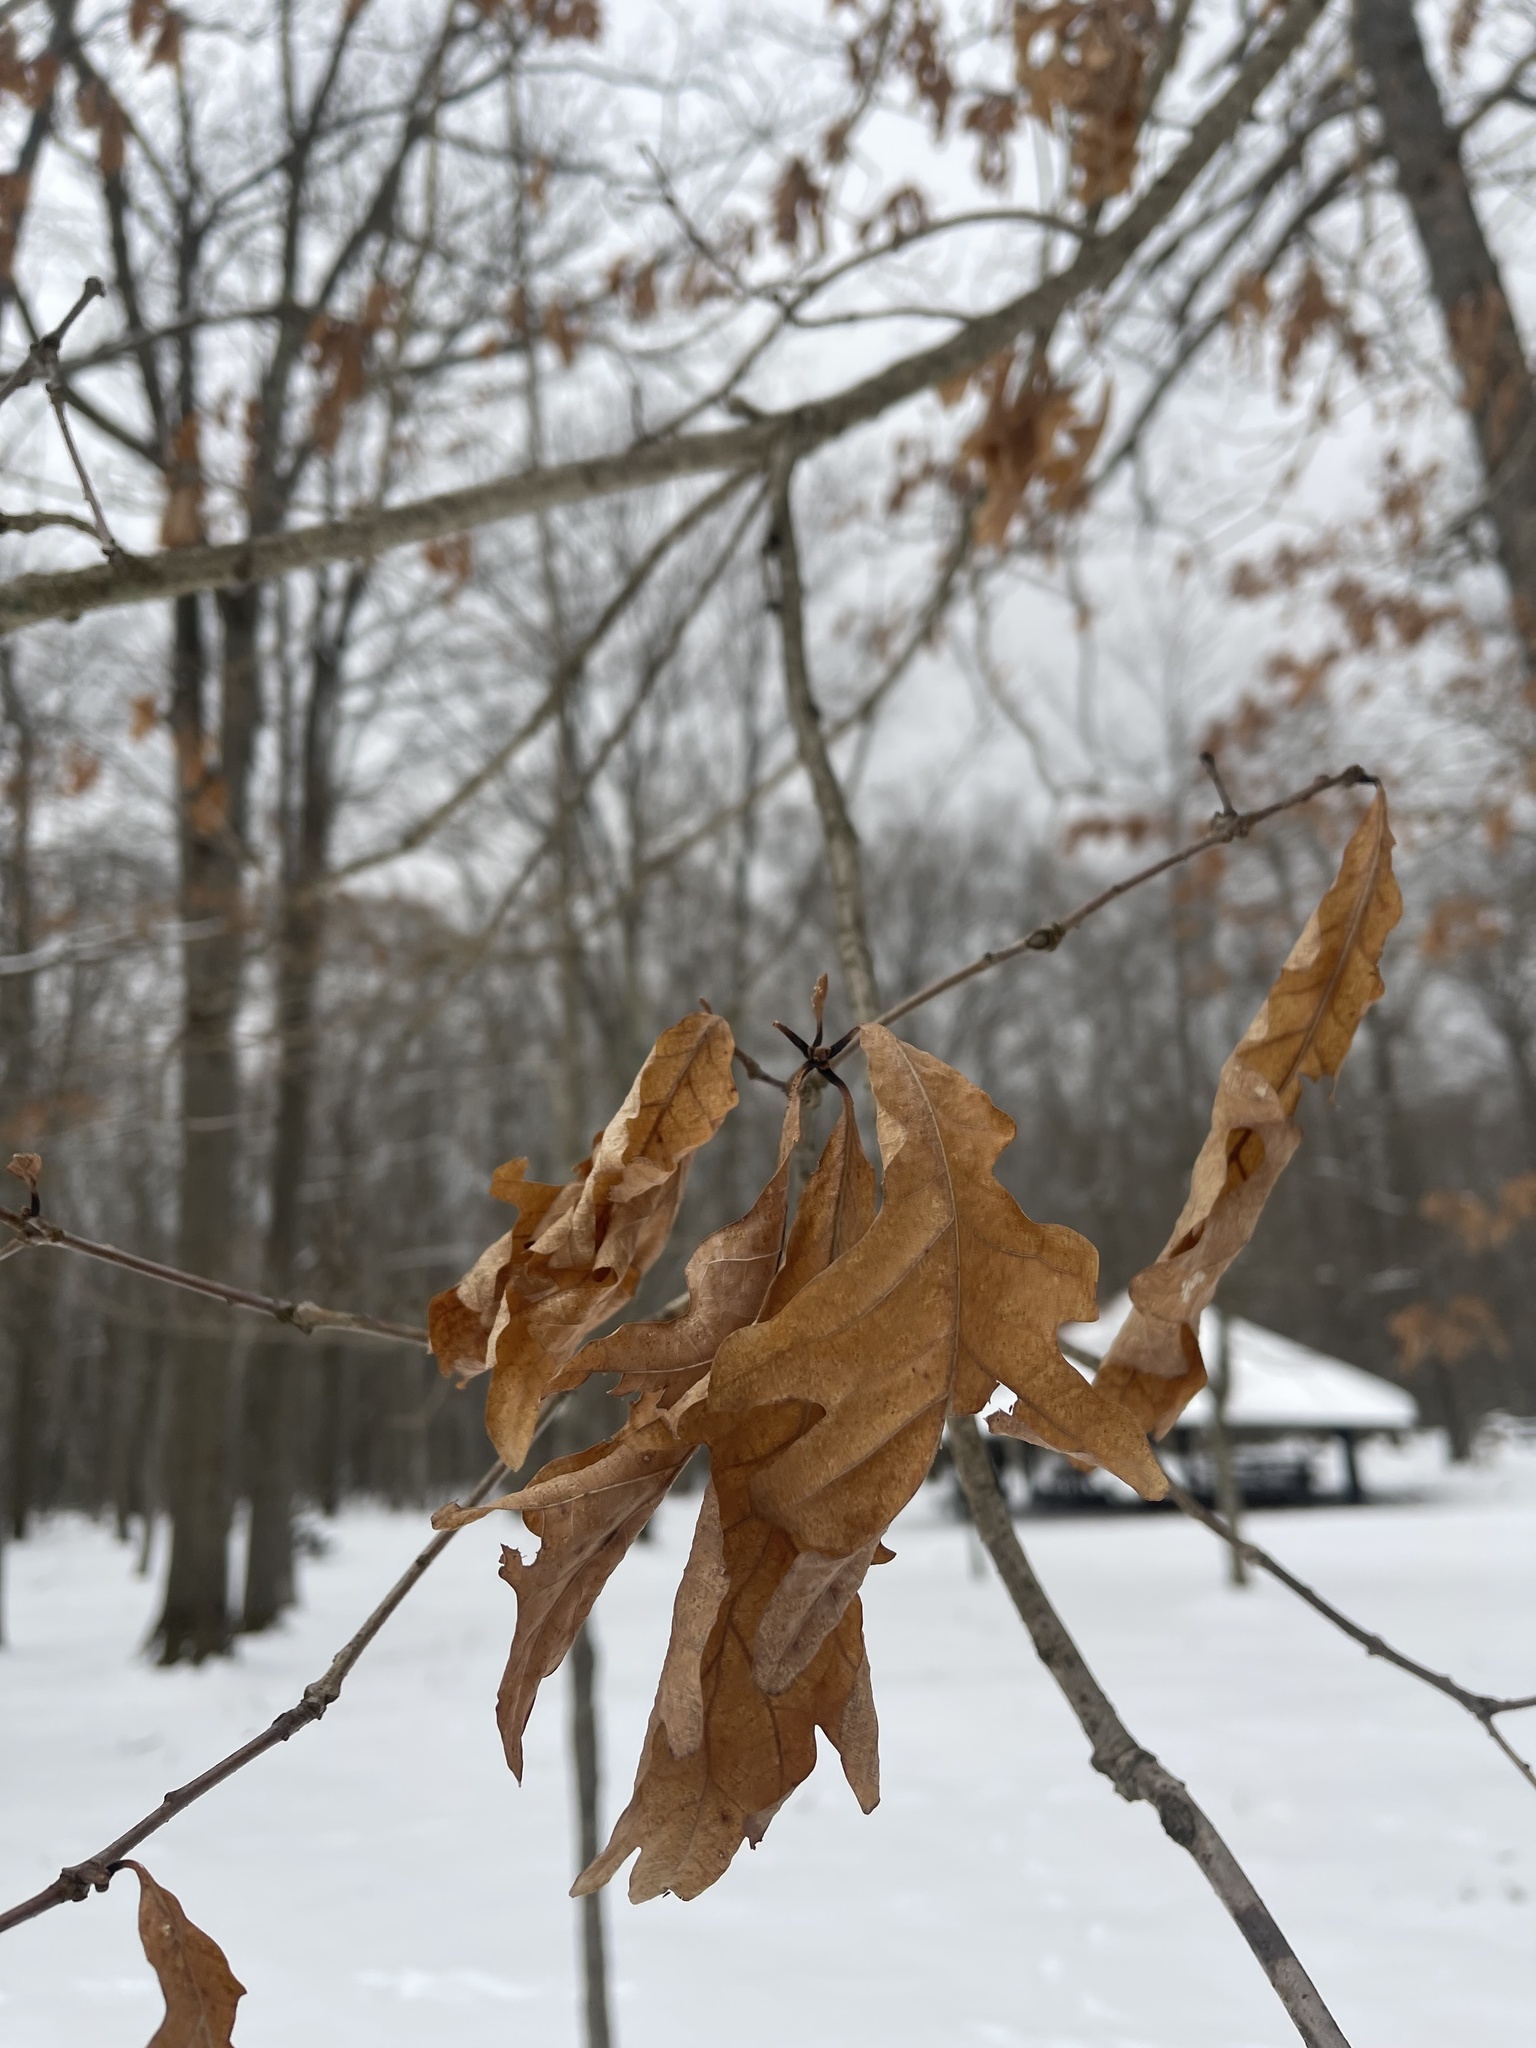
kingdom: Plantae
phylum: Tracheophyta
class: Magnoliopsida
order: Fagales
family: Fagaceae
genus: Quercus
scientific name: Quercus alba
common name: White oak
